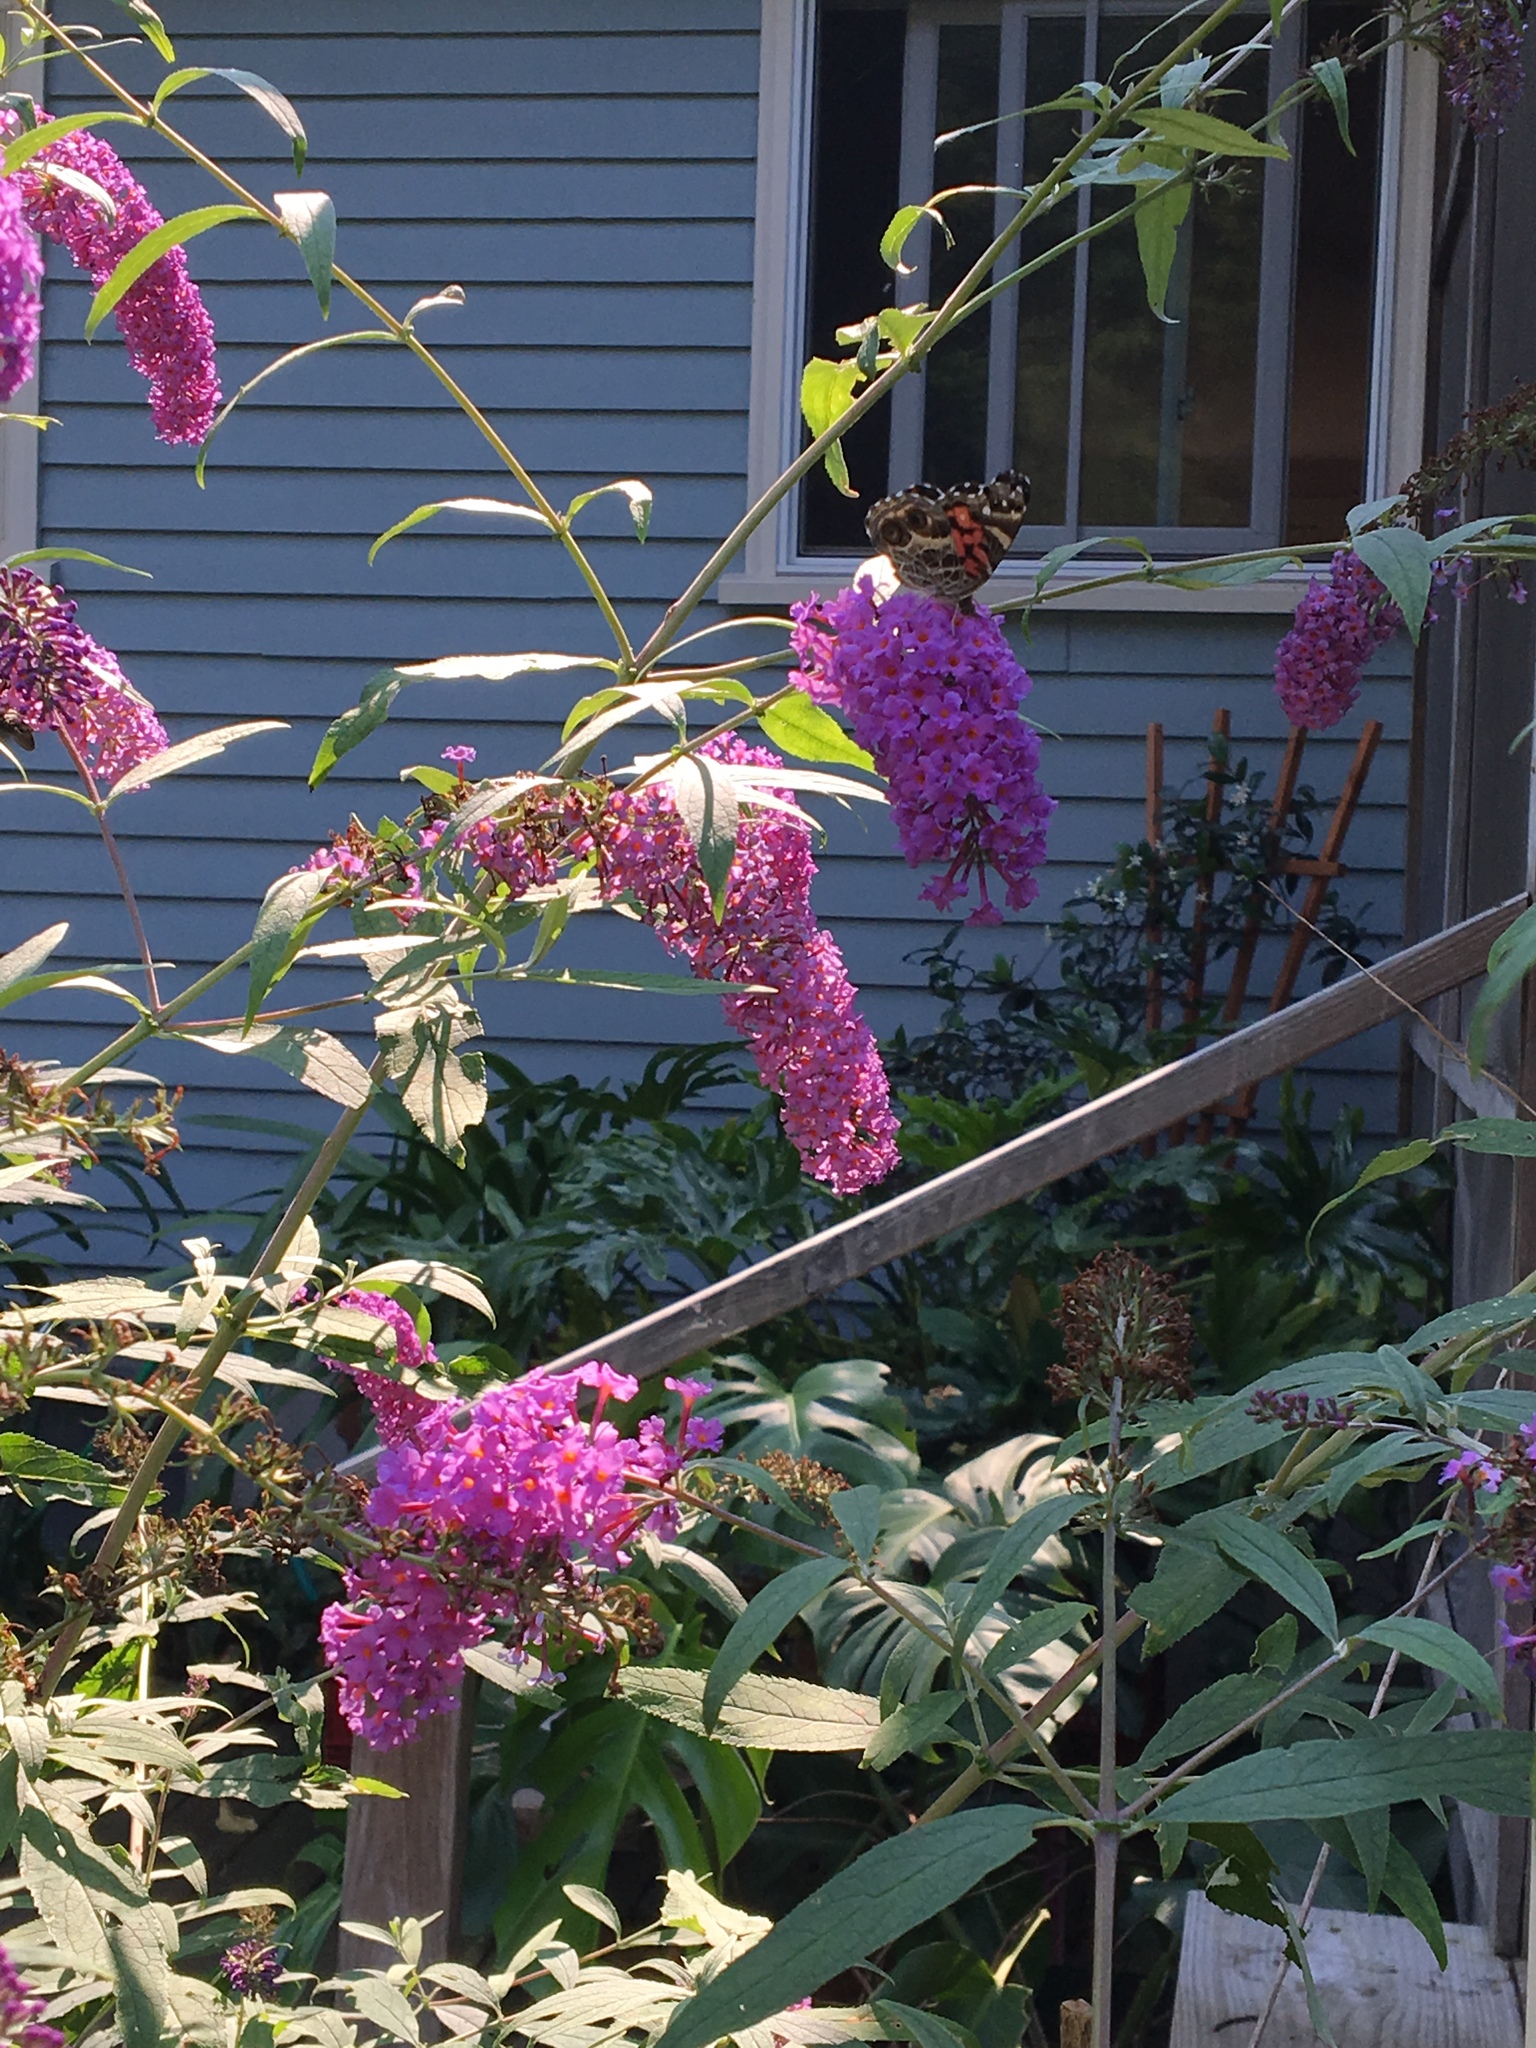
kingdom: Animalia
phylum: Arthropoda
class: Insecta
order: Lepidoptera
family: Nymphalidae
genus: Vanessa
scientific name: Vanessa virginiensis
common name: American lady
